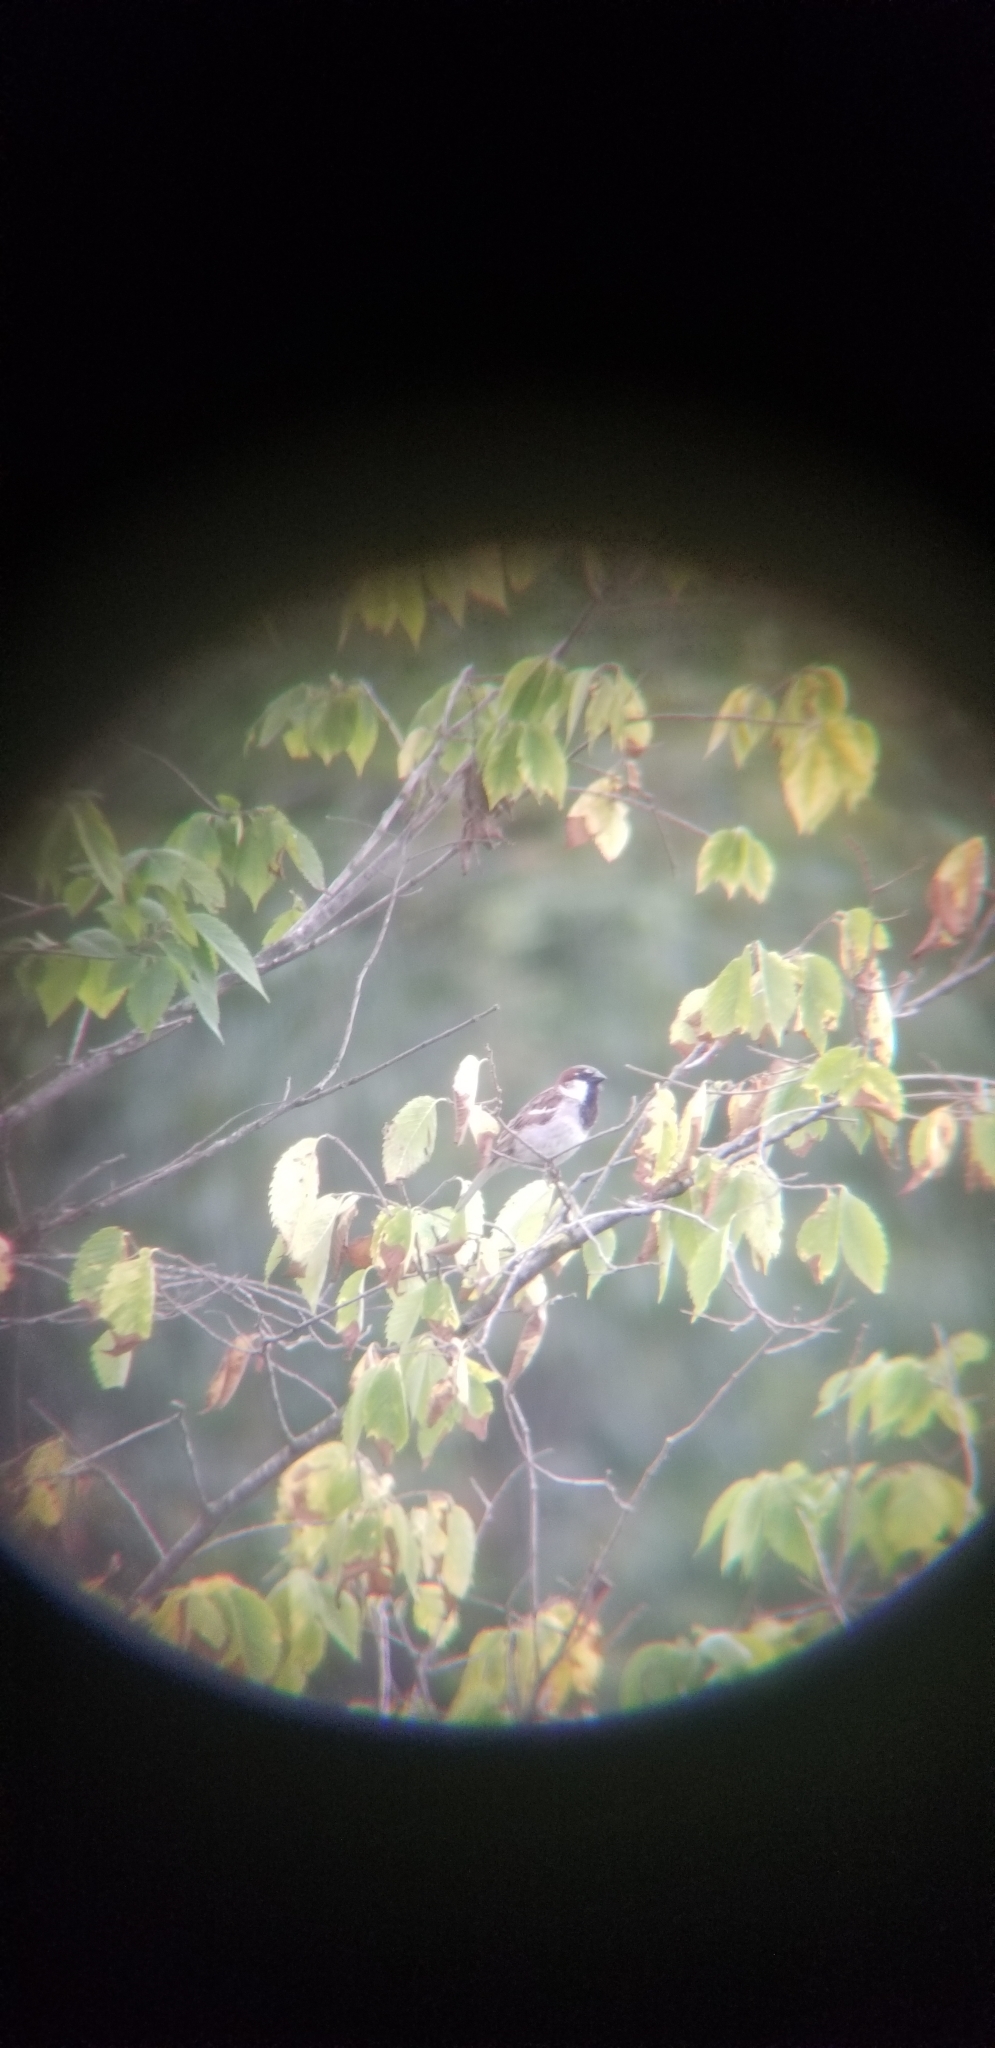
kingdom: Animalia
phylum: Chordata
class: Aves
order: Passeriformes
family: Passeridae
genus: Passer
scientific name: Passer domesticus
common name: House sparrow
